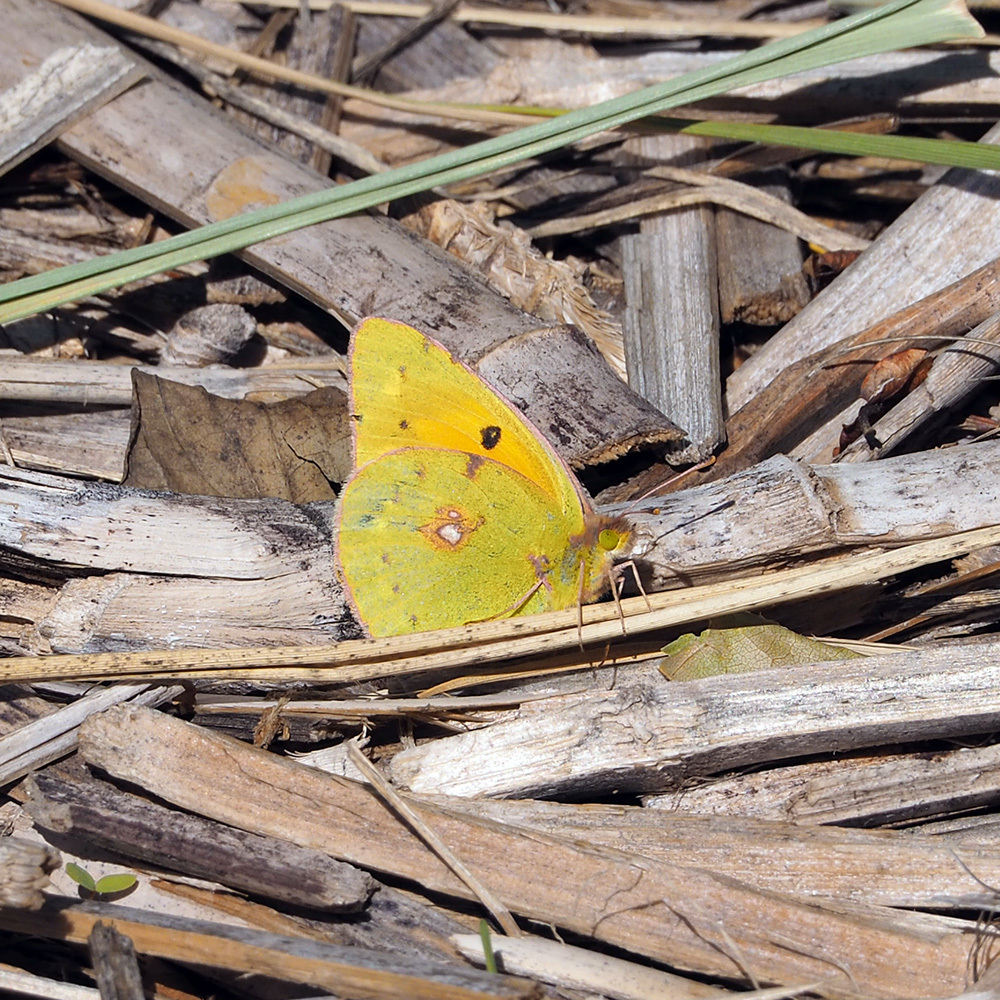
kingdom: Animalia
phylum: Arthropoda
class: Insecta
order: Lepidoptera
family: Pieridae
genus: Colias
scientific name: Colias croceus
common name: Clouded yellow
